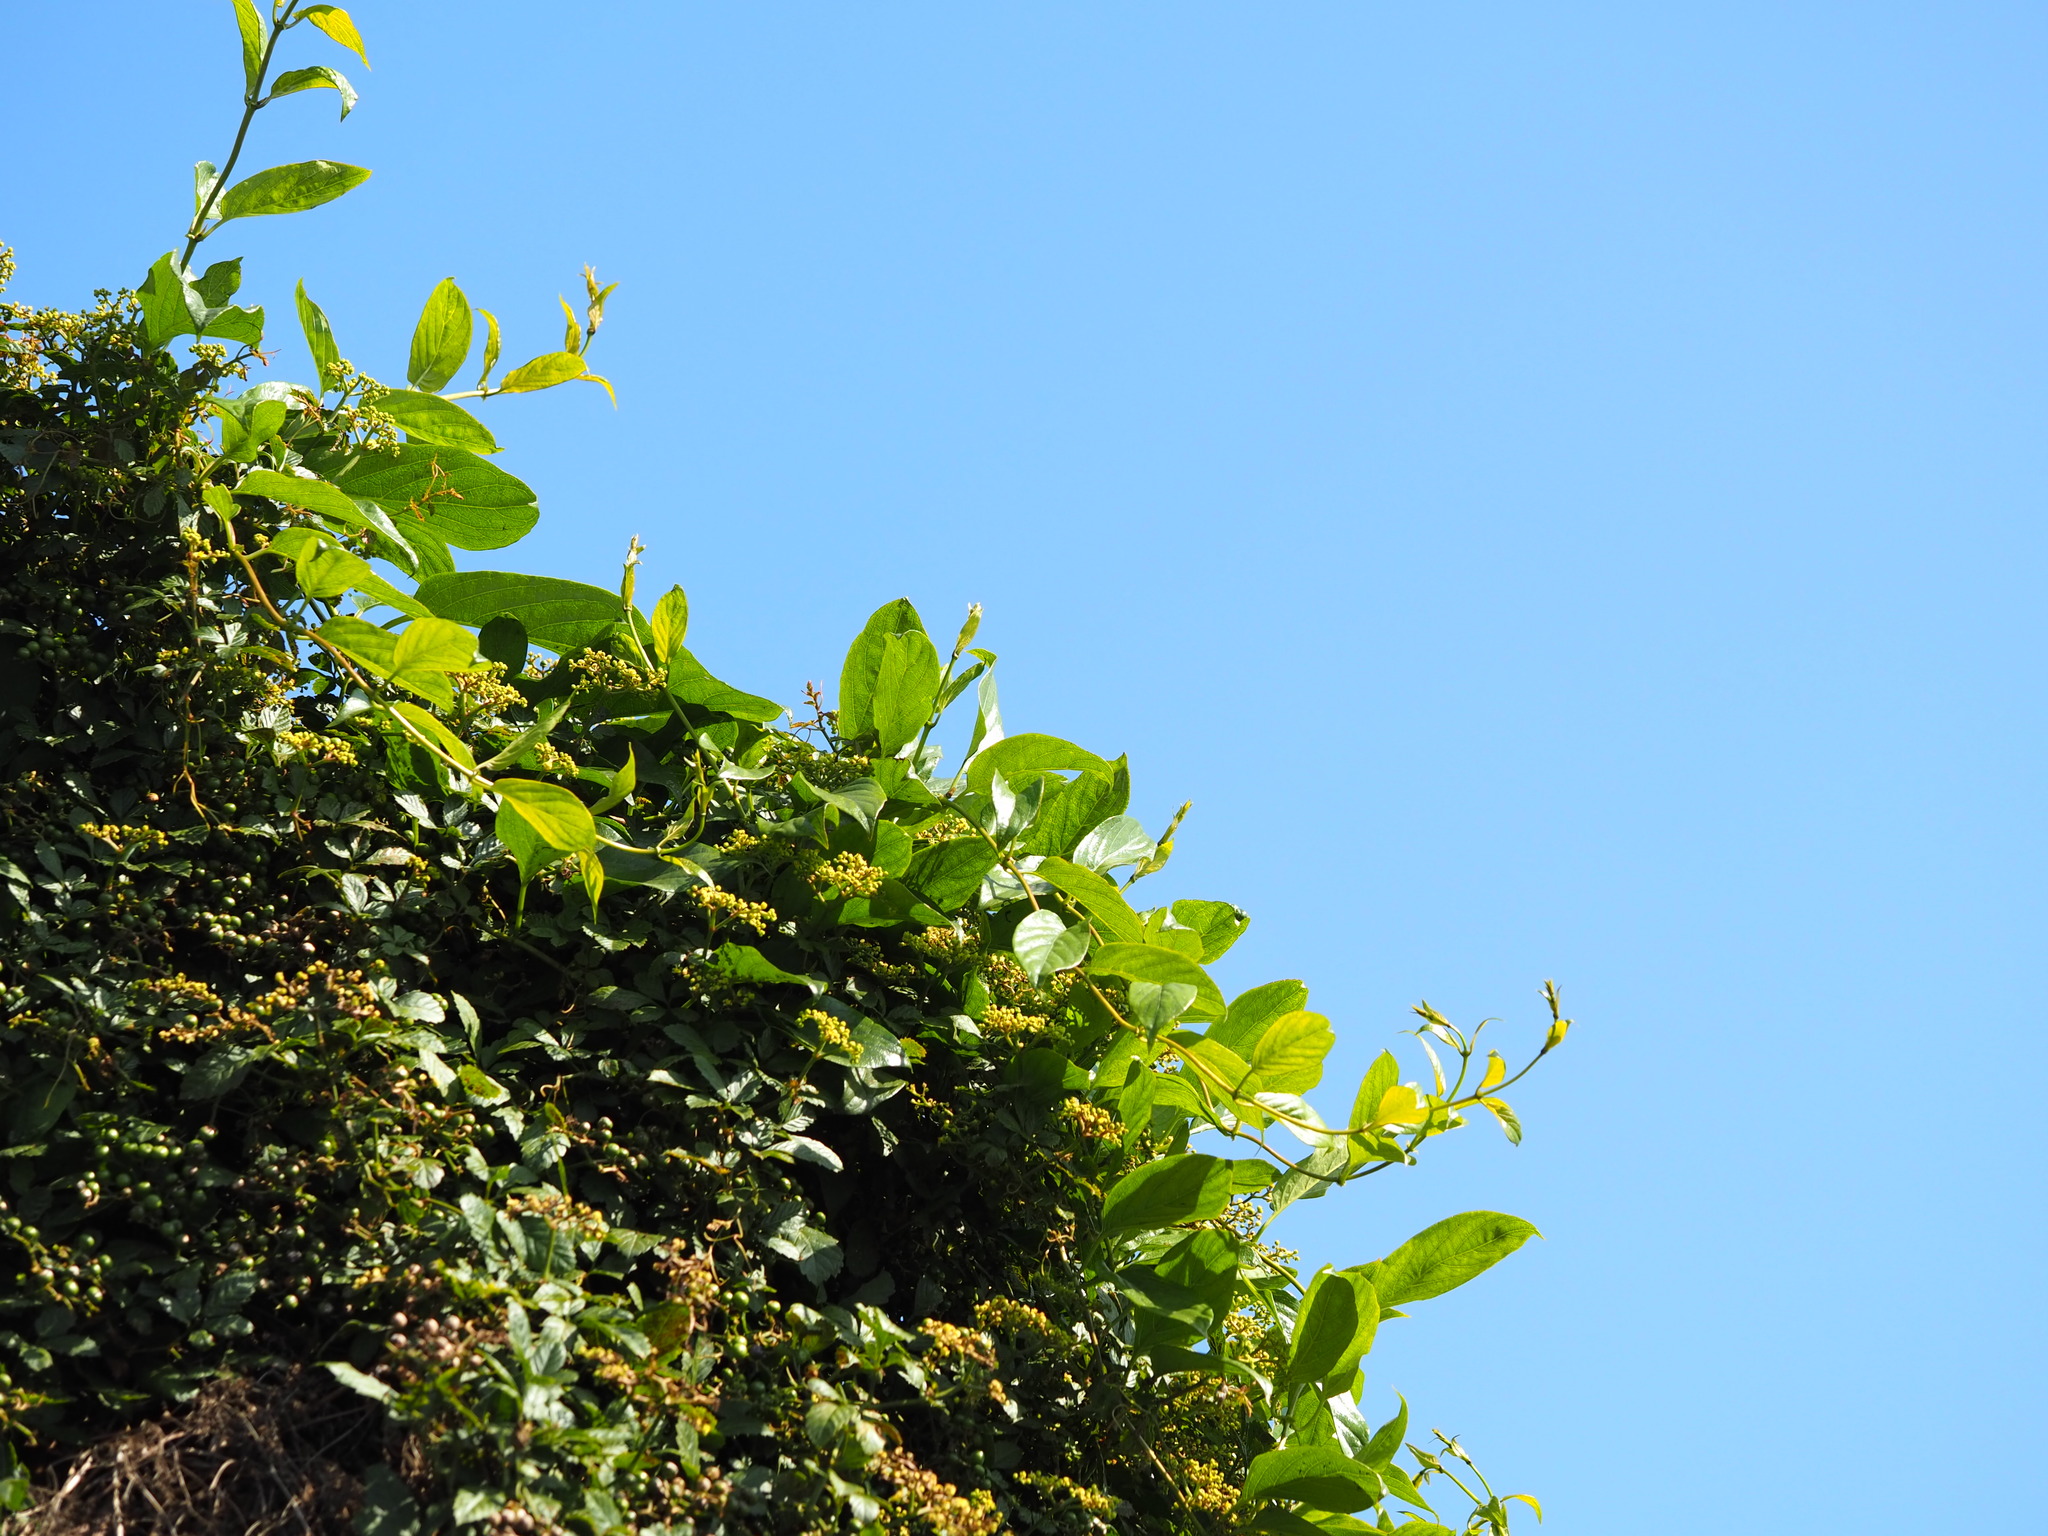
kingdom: Plantae
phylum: Tracheophyta
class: Magnoliopsida
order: Gentianales
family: Rubiaceae
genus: Paederia
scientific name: Paederia foetida
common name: Stinkvine
